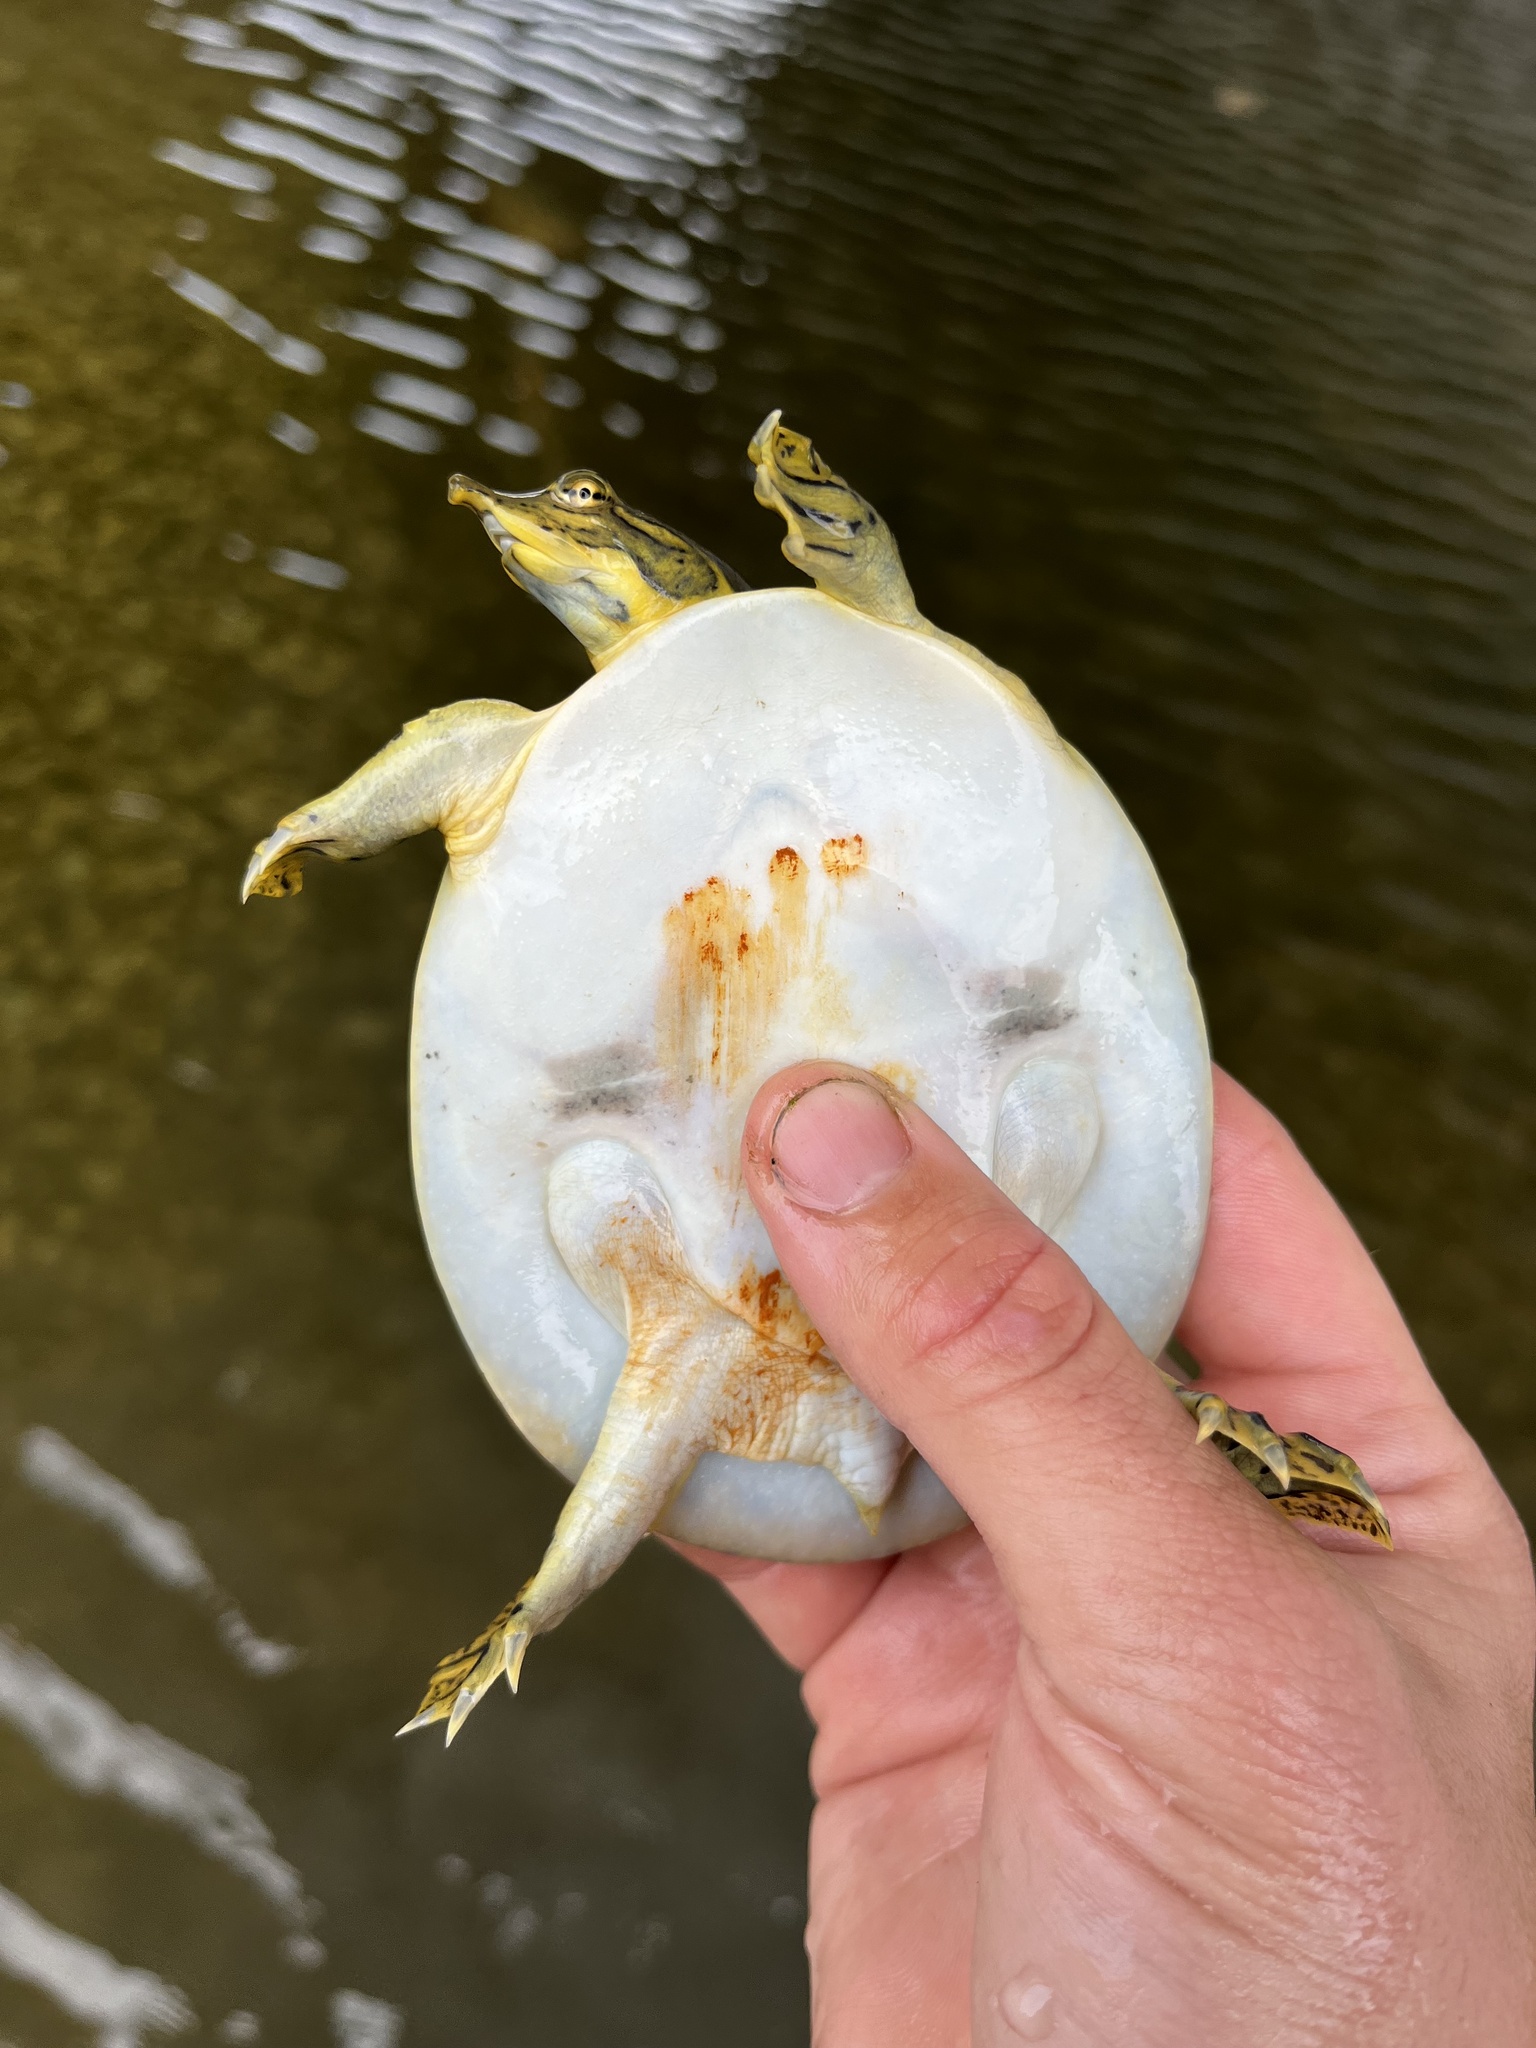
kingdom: Animalia
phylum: Chordata
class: Testudines
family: Trionychidae
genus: Apalone
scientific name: Apalone spinifera
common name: Spiny softshell turtle
